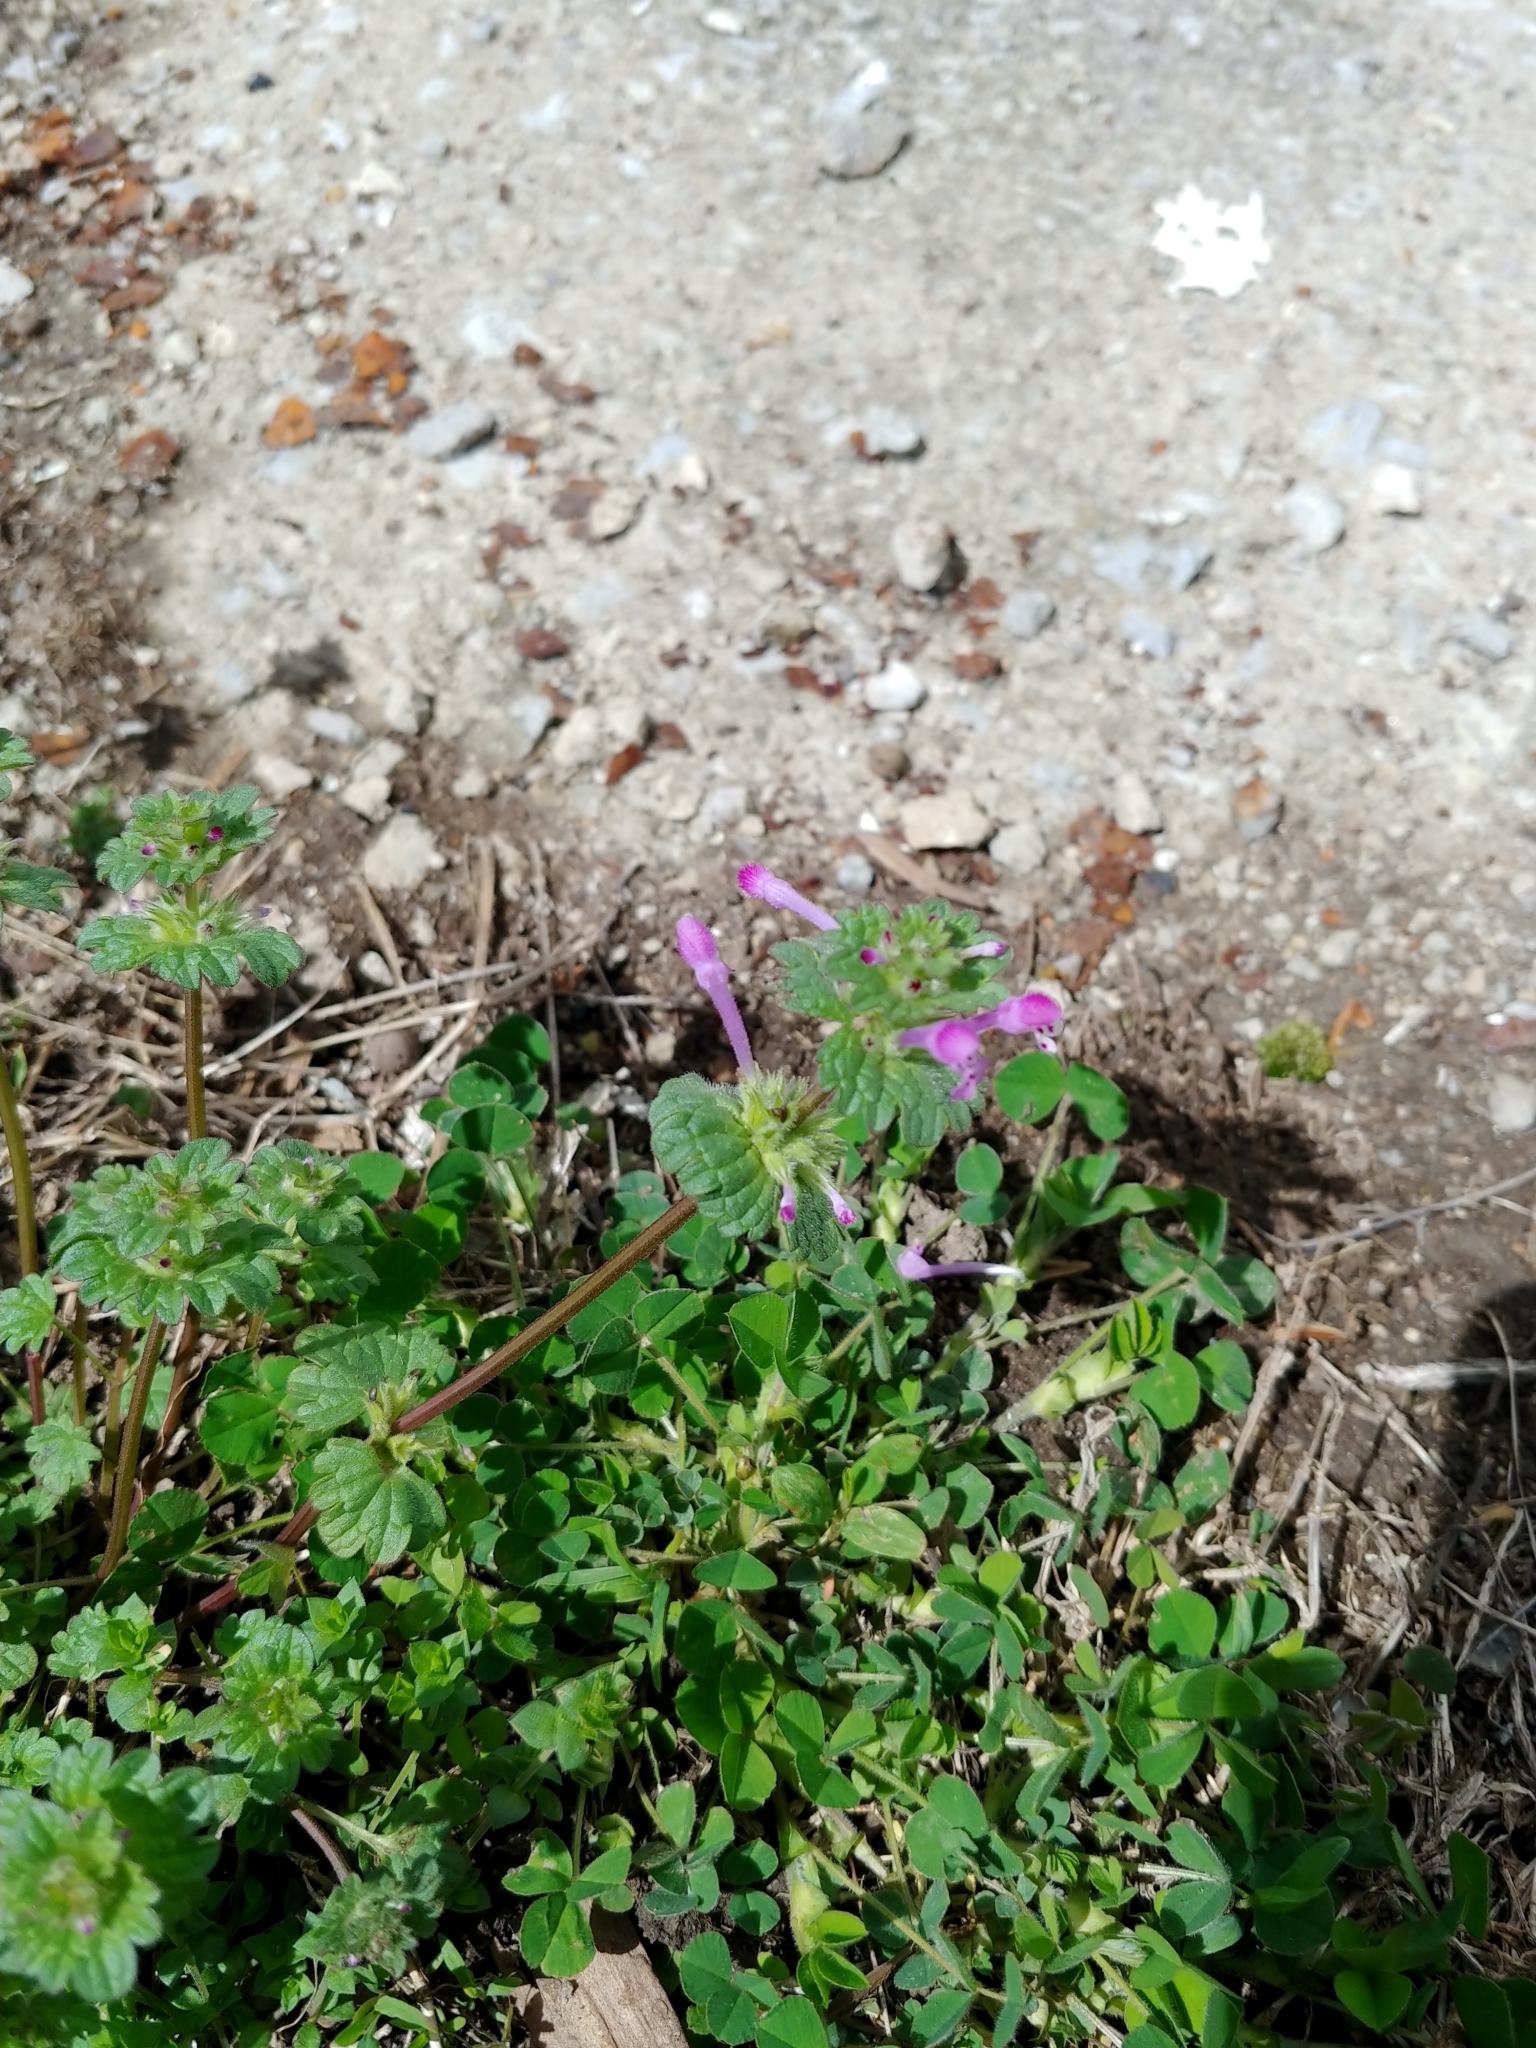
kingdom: Plantae
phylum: Tracheophyta
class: Magnoliopsida
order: Lamiales
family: Lamiaceae
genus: Lamium
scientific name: Lamium amplexicaule
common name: Henbit dead-nettle
